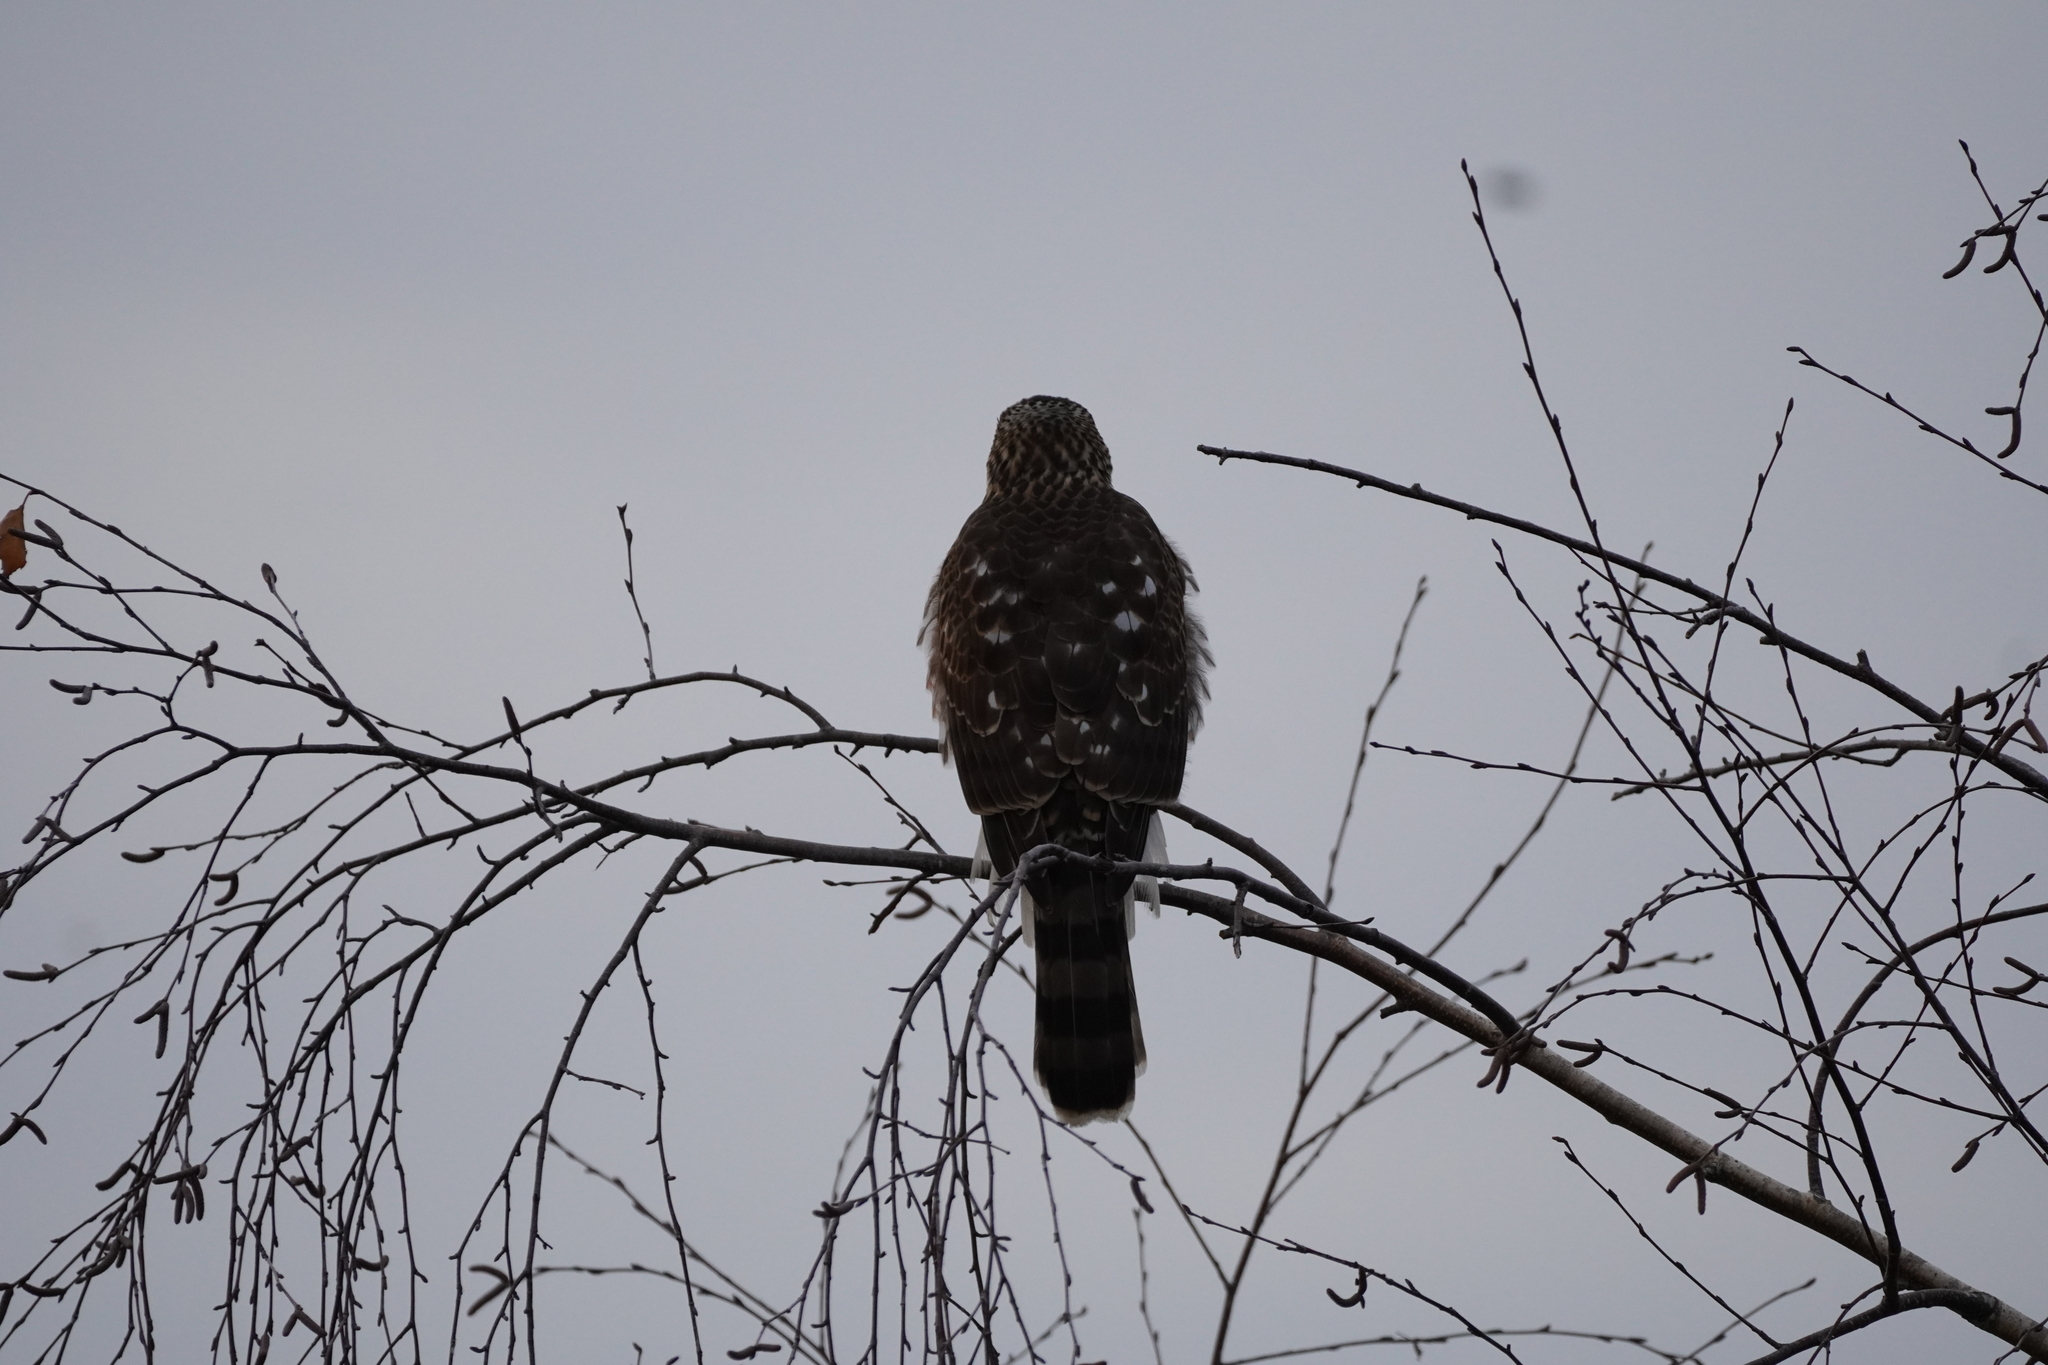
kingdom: Animalia
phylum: Chordata
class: Aves
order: Accipitriformes
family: Accipitridae
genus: Accipiter
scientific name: Accipiter cooperii
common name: Cooper's hawk
